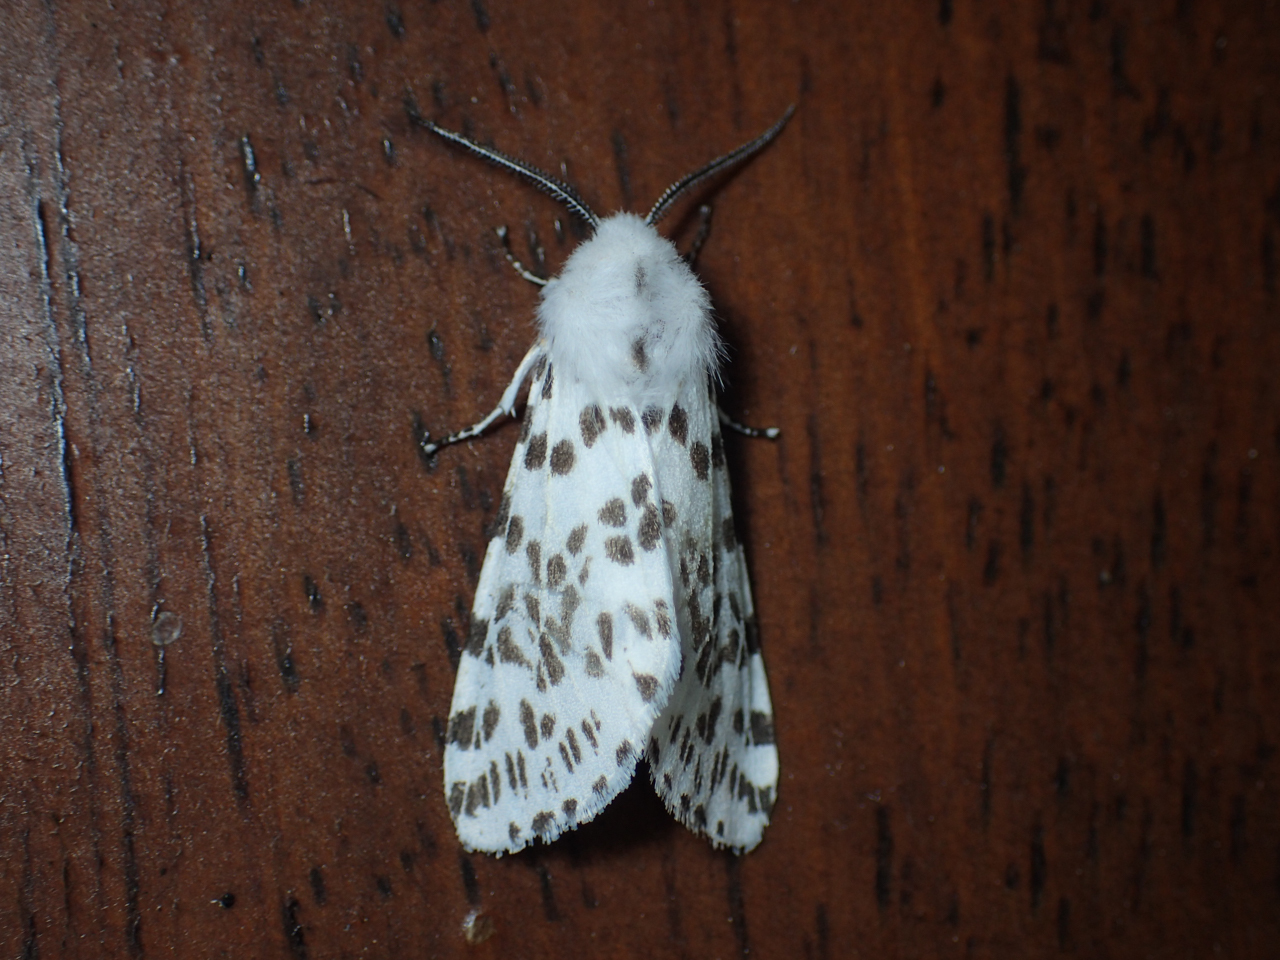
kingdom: Animalia
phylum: Arthropoda
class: Insecta
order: Lepidoptera
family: Erebidae
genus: Hyphantria
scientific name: Hyphantria cunea
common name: American white moth
